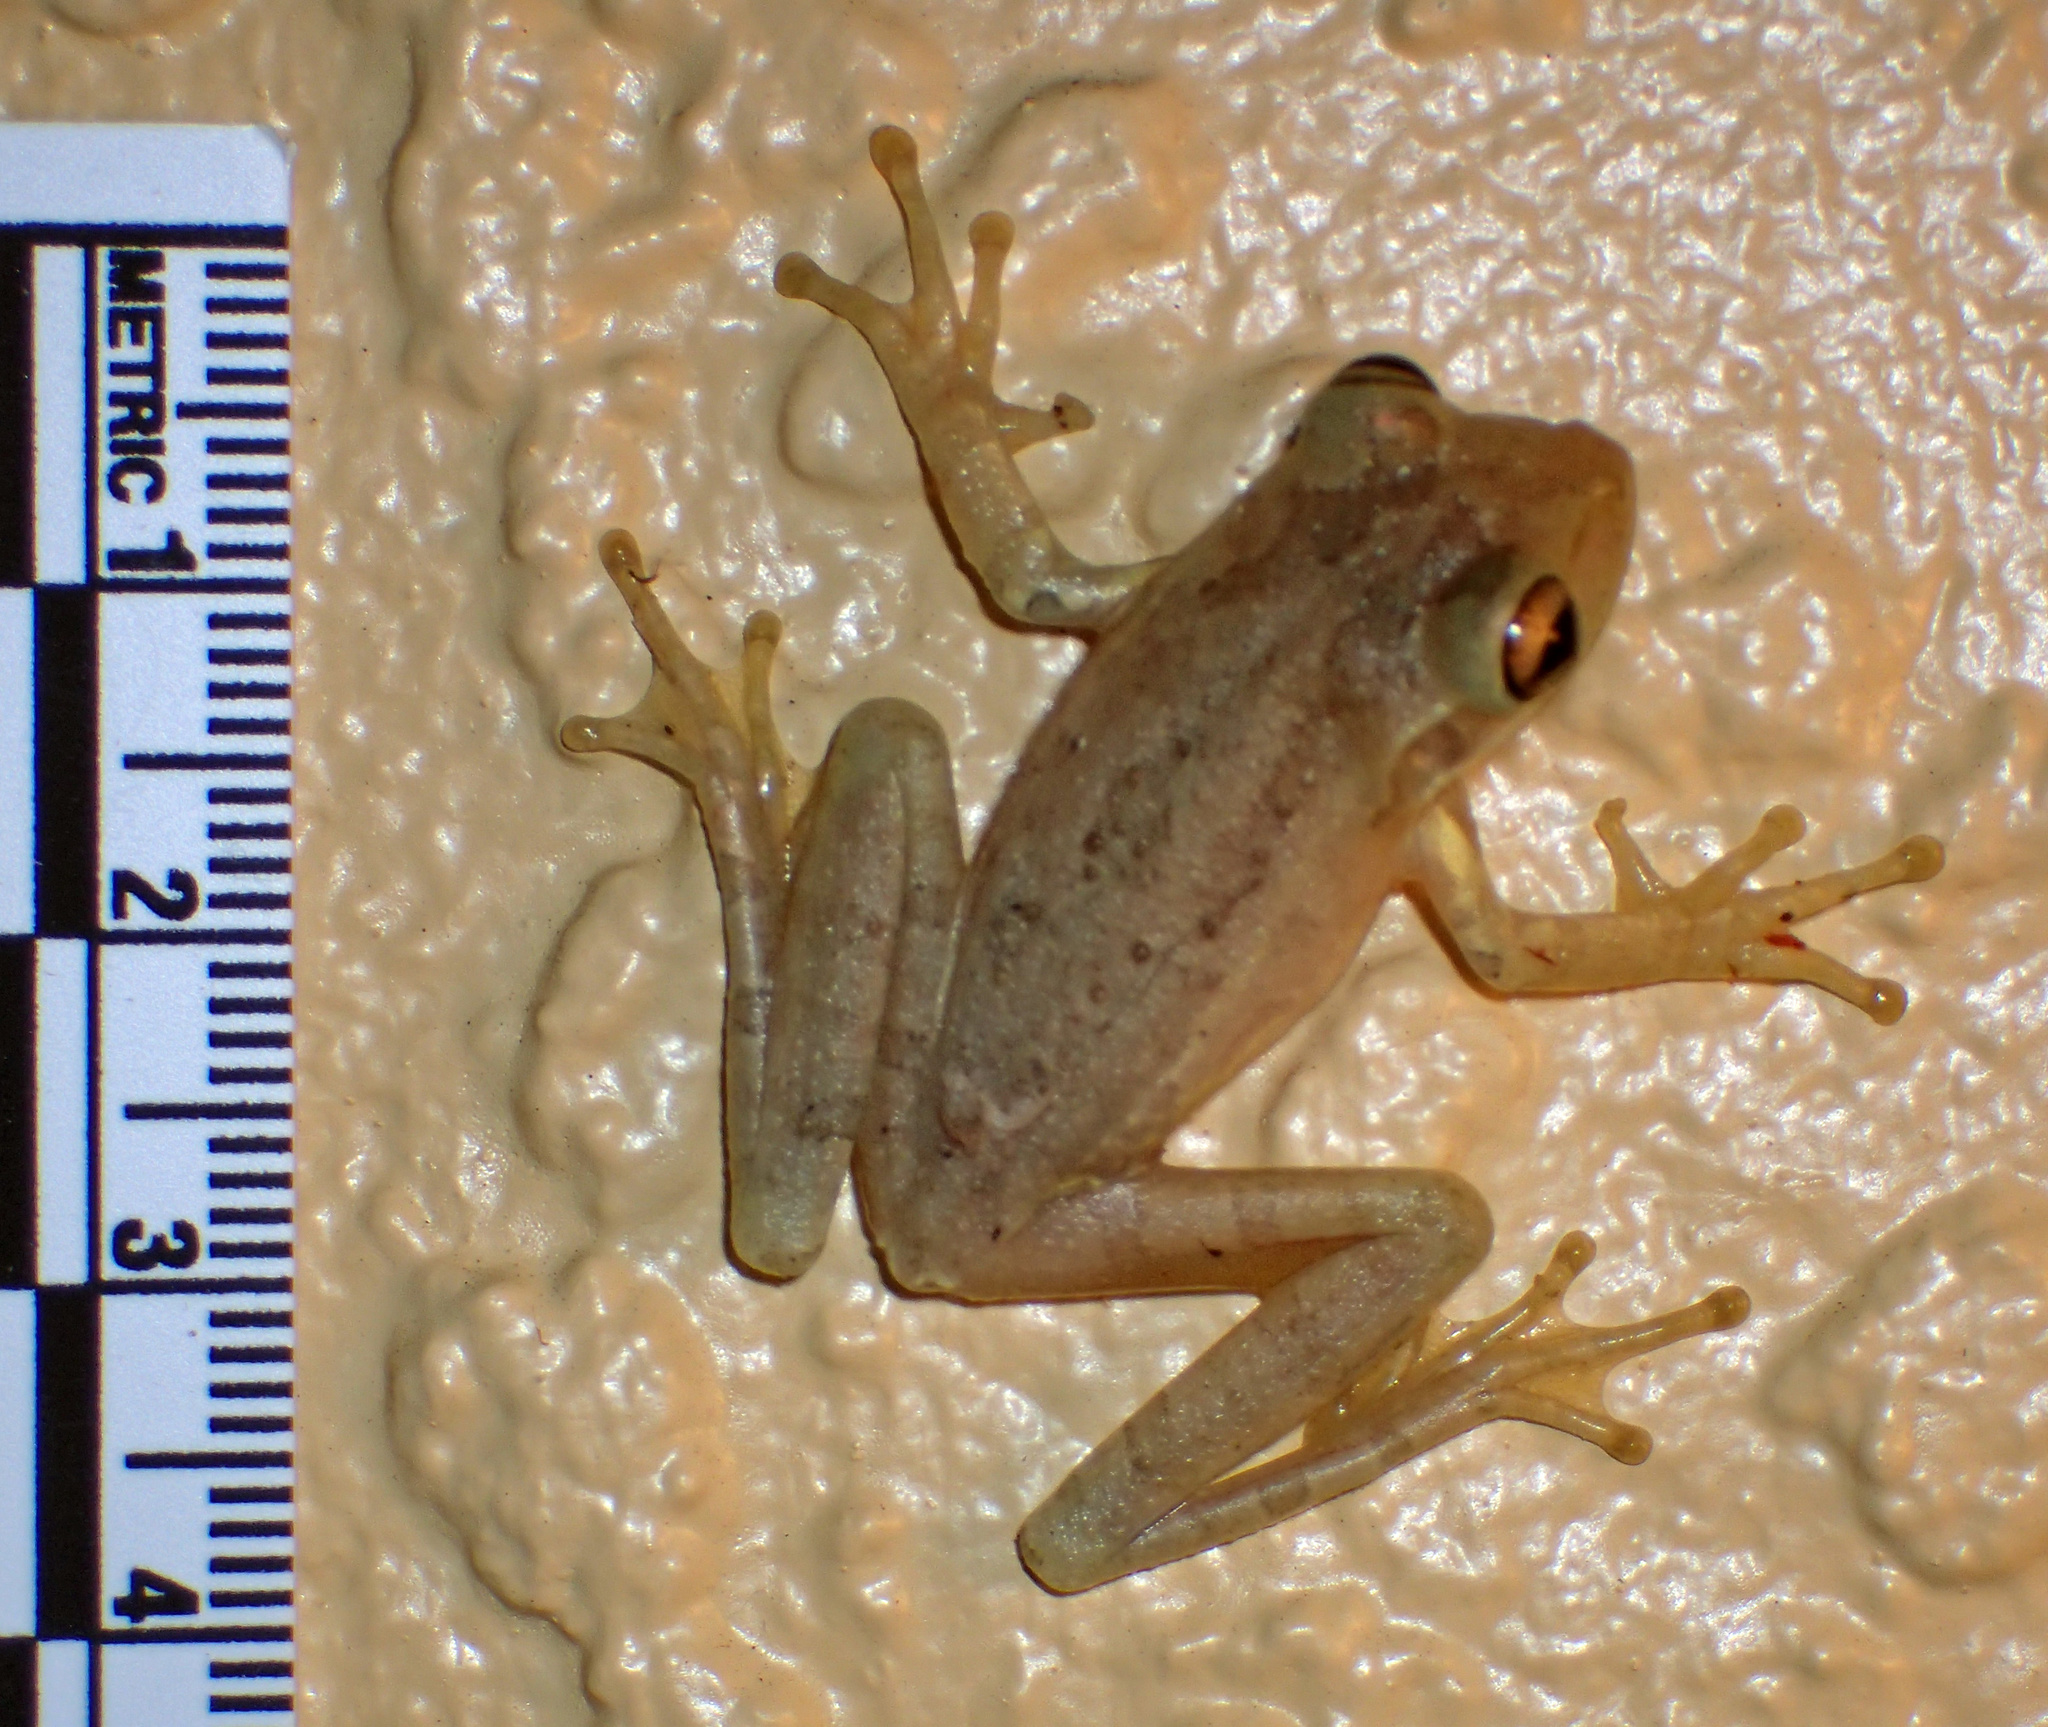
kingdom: Animalia
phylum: Chordata
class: Amphibia
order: Anura
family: Hylidae
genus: Osteopilus
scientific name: Osteopilus septentrionalis
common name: Cuban treefrog
